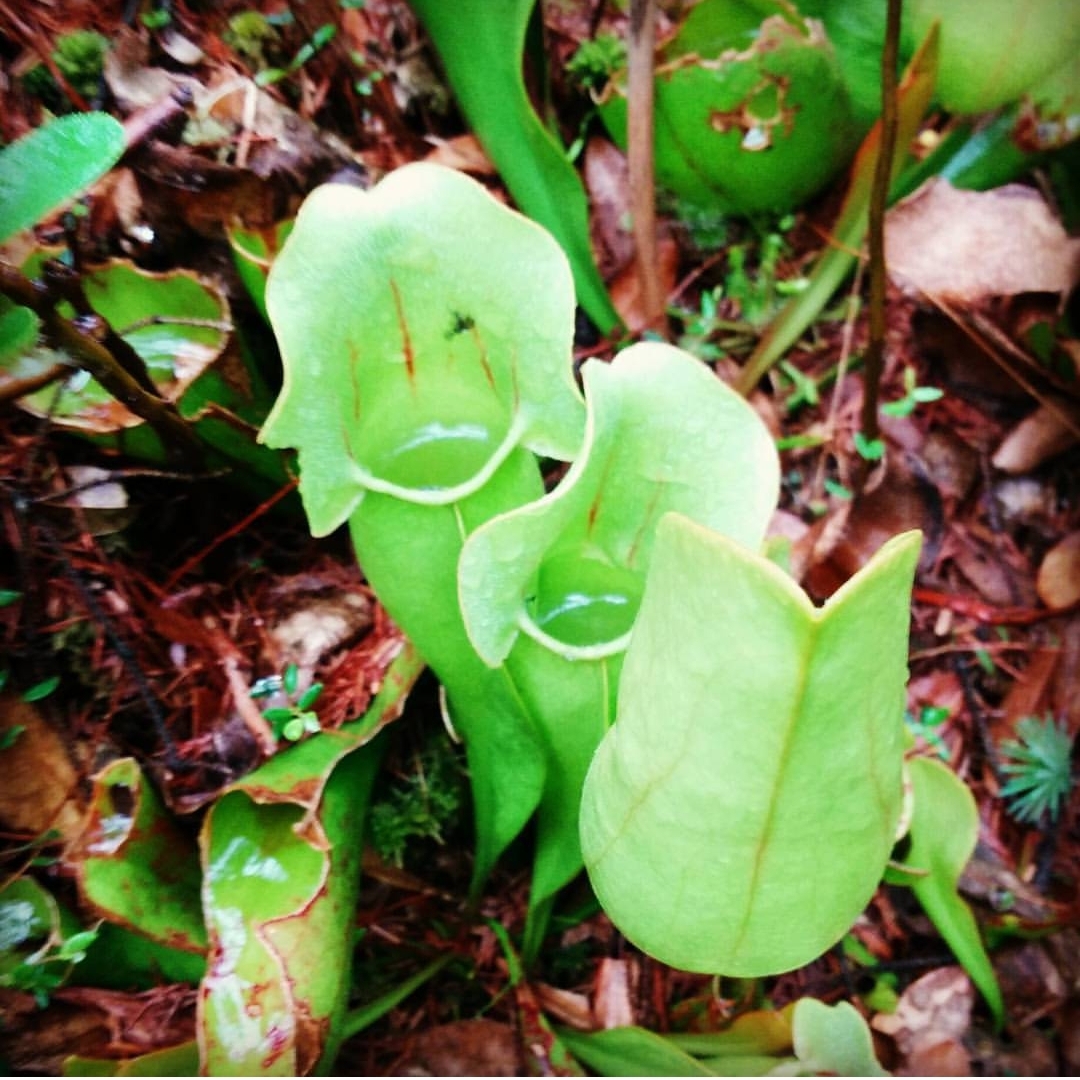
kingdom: Plantae
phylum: Tracheophyta
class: Magnoliopsida
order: Ericales
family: Sarraceniaceae
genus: Sarracenia
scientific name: Sarracenia purpurea
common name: Pitcherplant
